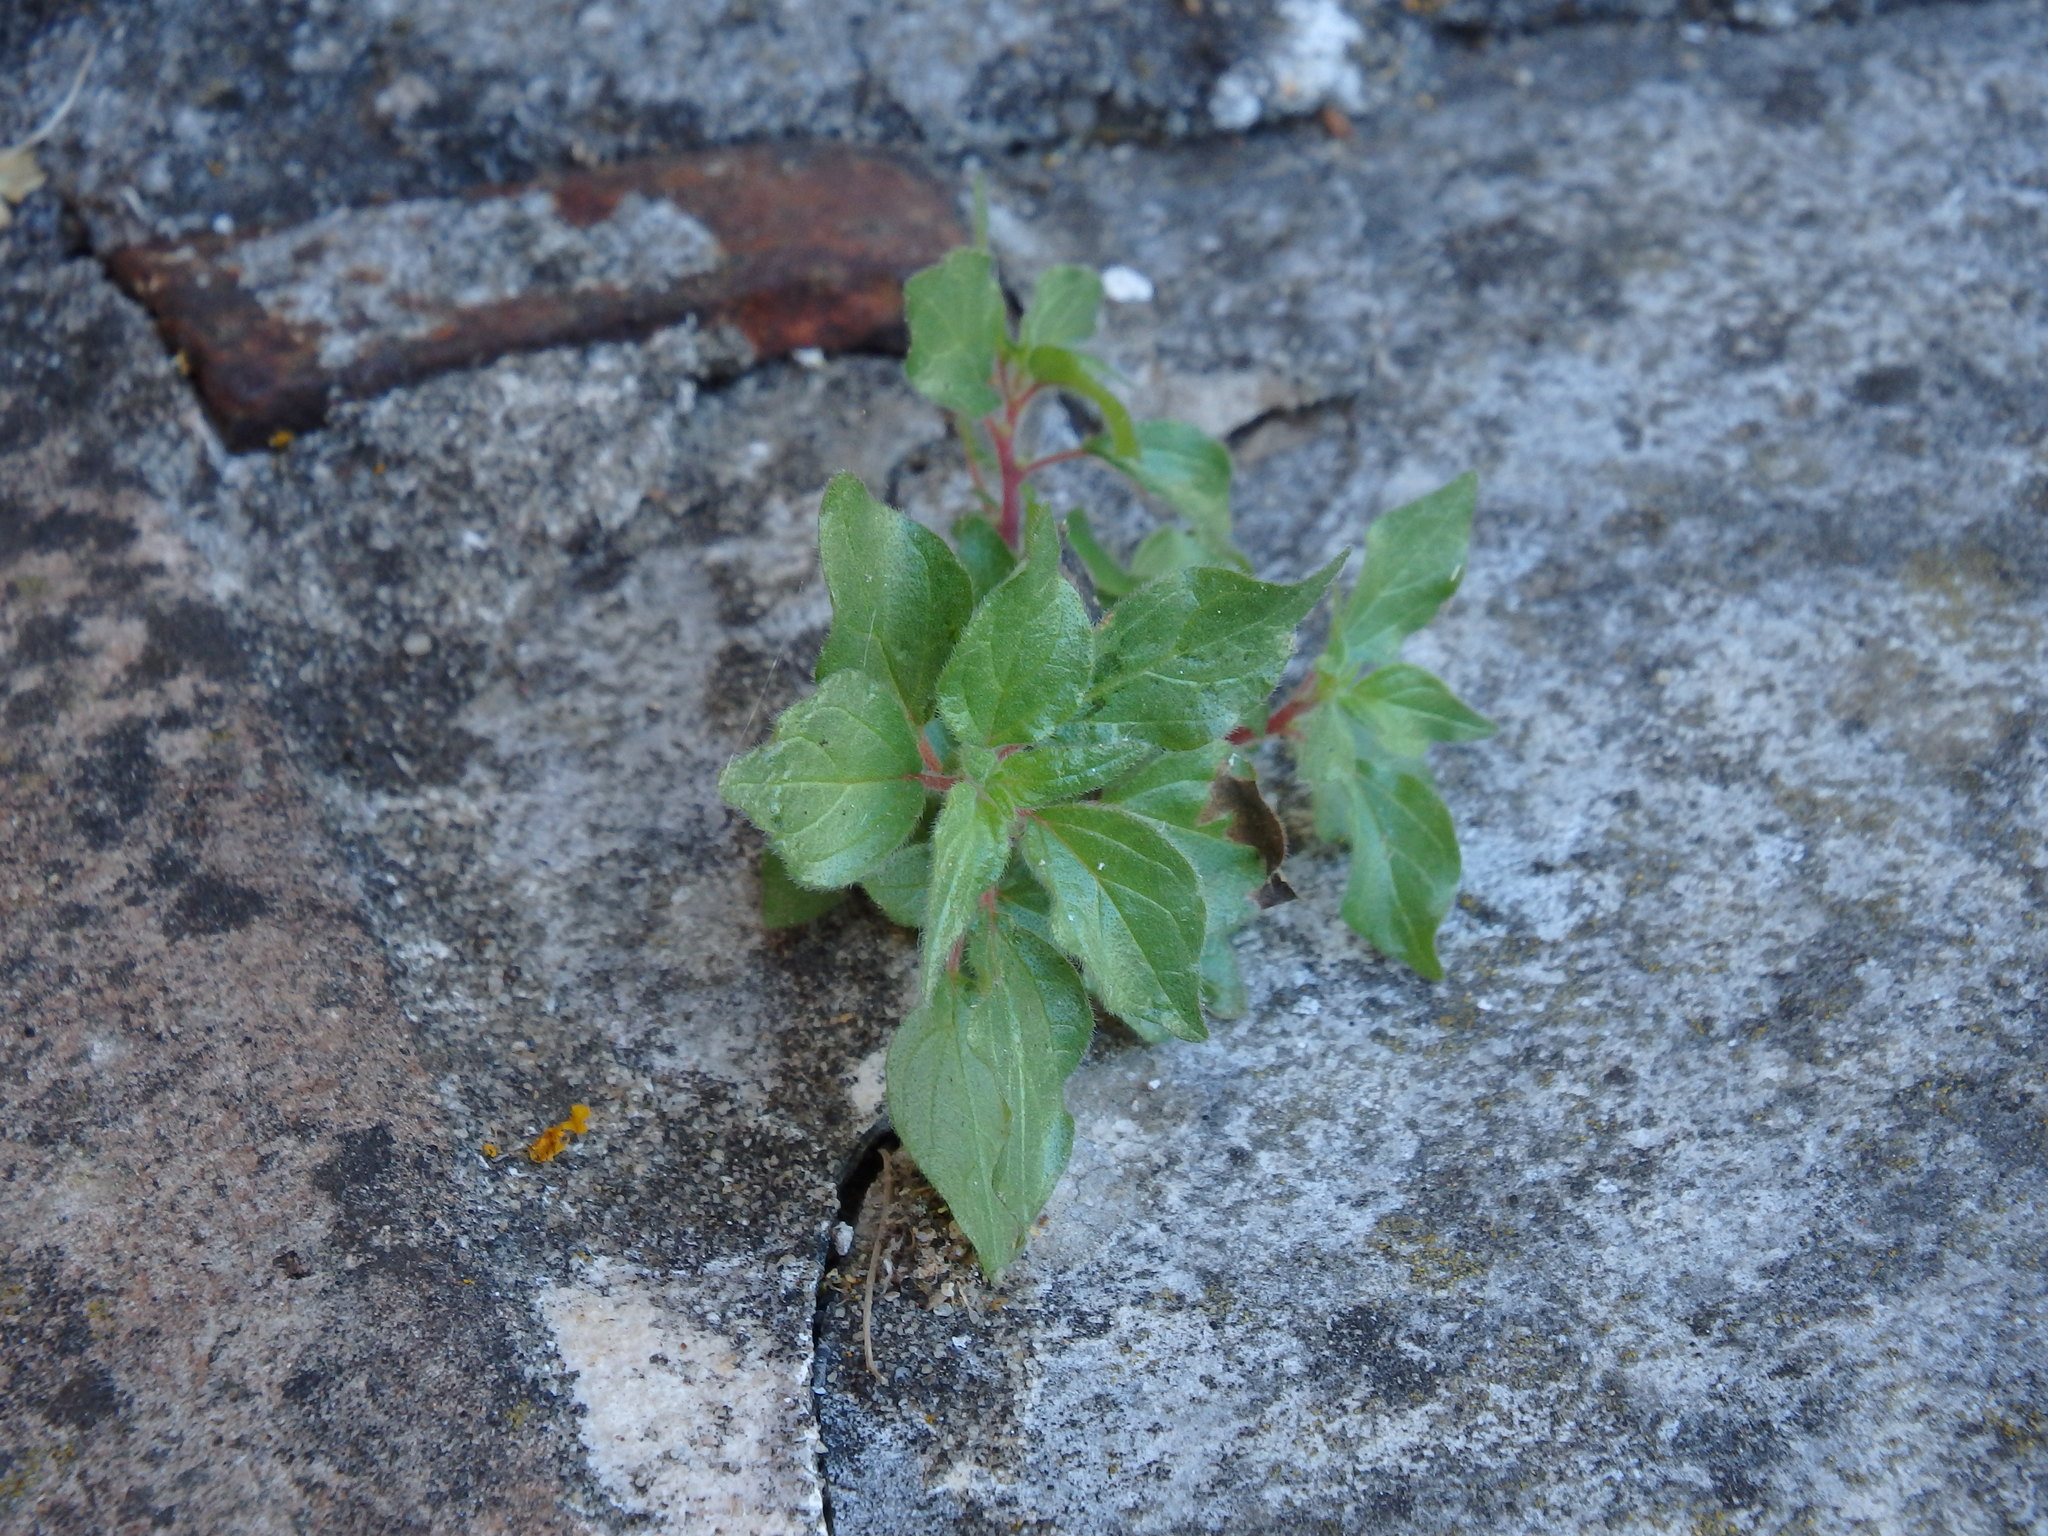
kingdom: Plantae
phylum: Tracheophyta
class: Magnoliopsida
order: Rosales
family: Urticaceae
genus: Parietaria
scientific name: Parietaria judaica
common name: Pellitory-of-the-wall
